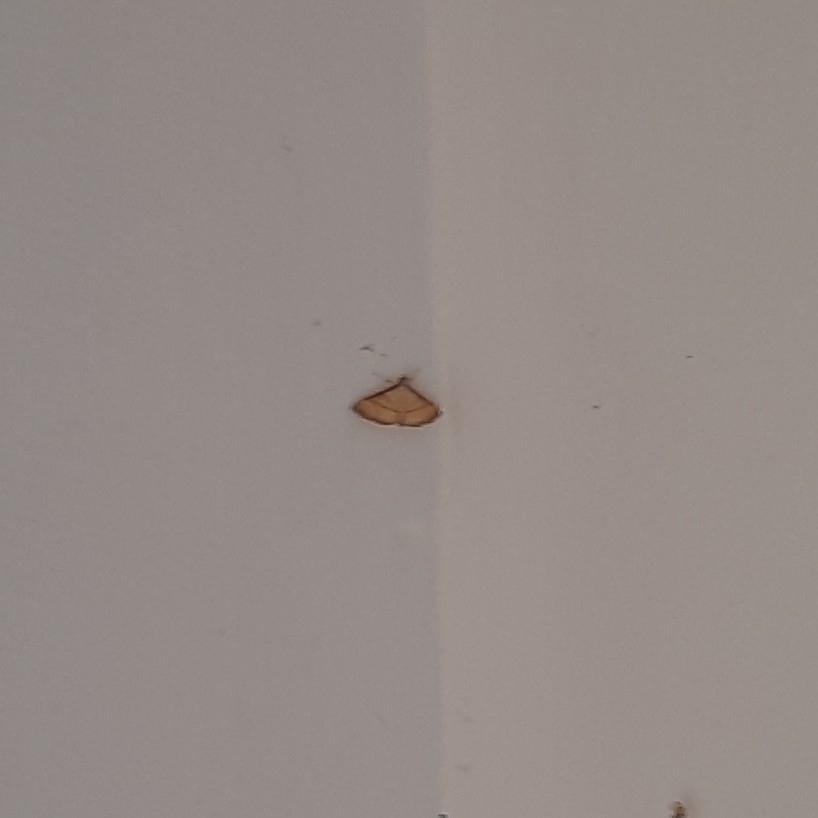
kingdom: Animalia
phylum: Arthropoda
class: Insecta
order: Lepidoptera
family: Crambidae
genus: Cnaphalocrocis
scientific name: Cnaphalocrocis medinalis
